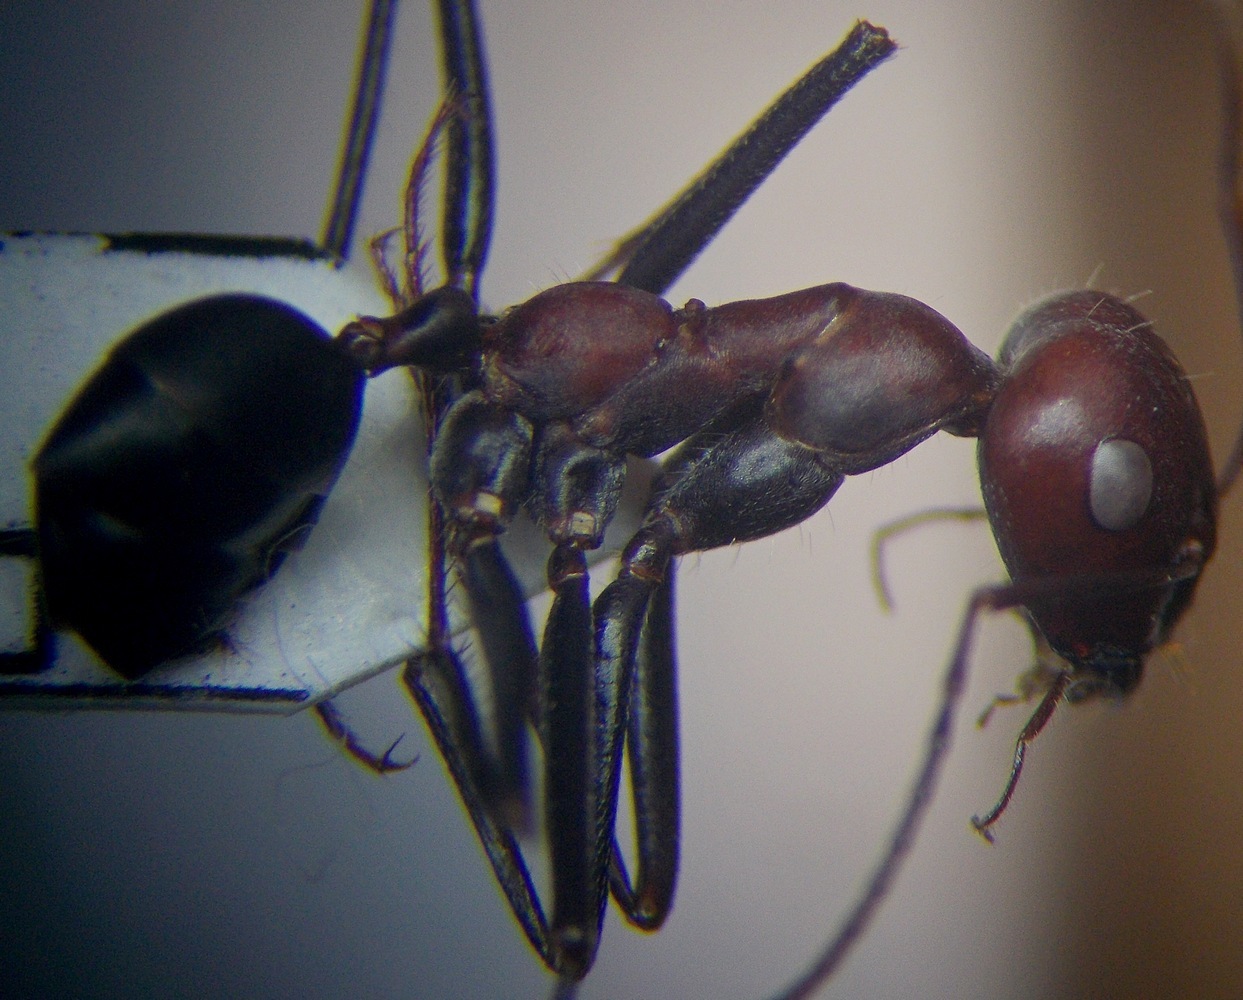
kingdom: Animalia
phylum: Arthropoda
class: Insecta
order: Hymenoptera
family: Formicidae
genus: Cataglyphis
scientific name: Cataglyphis nodus
